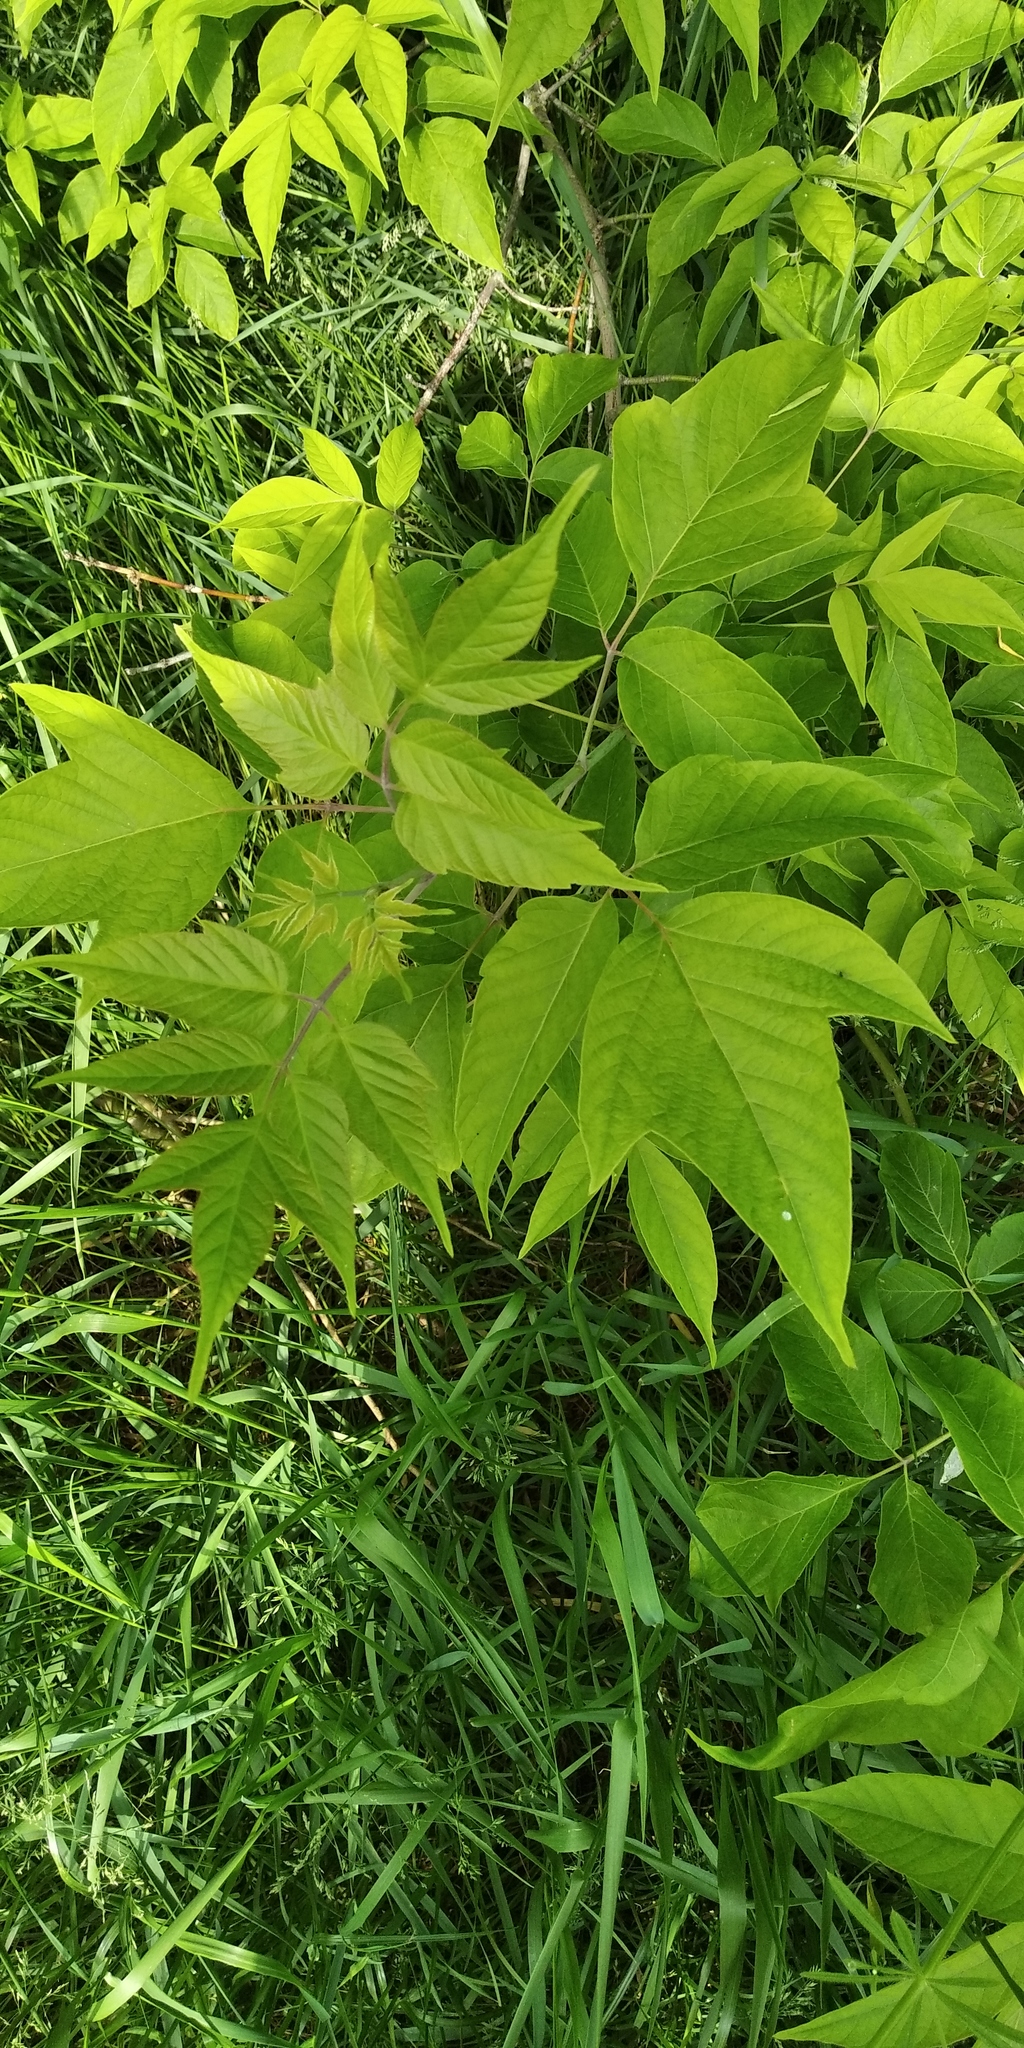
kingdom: Plantae
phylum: Tracheophyta
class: Magnoliopsida
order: Sapindales
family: Sapindaceae
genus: Acer
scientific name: Acer negundo
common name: Ashleaf maple
